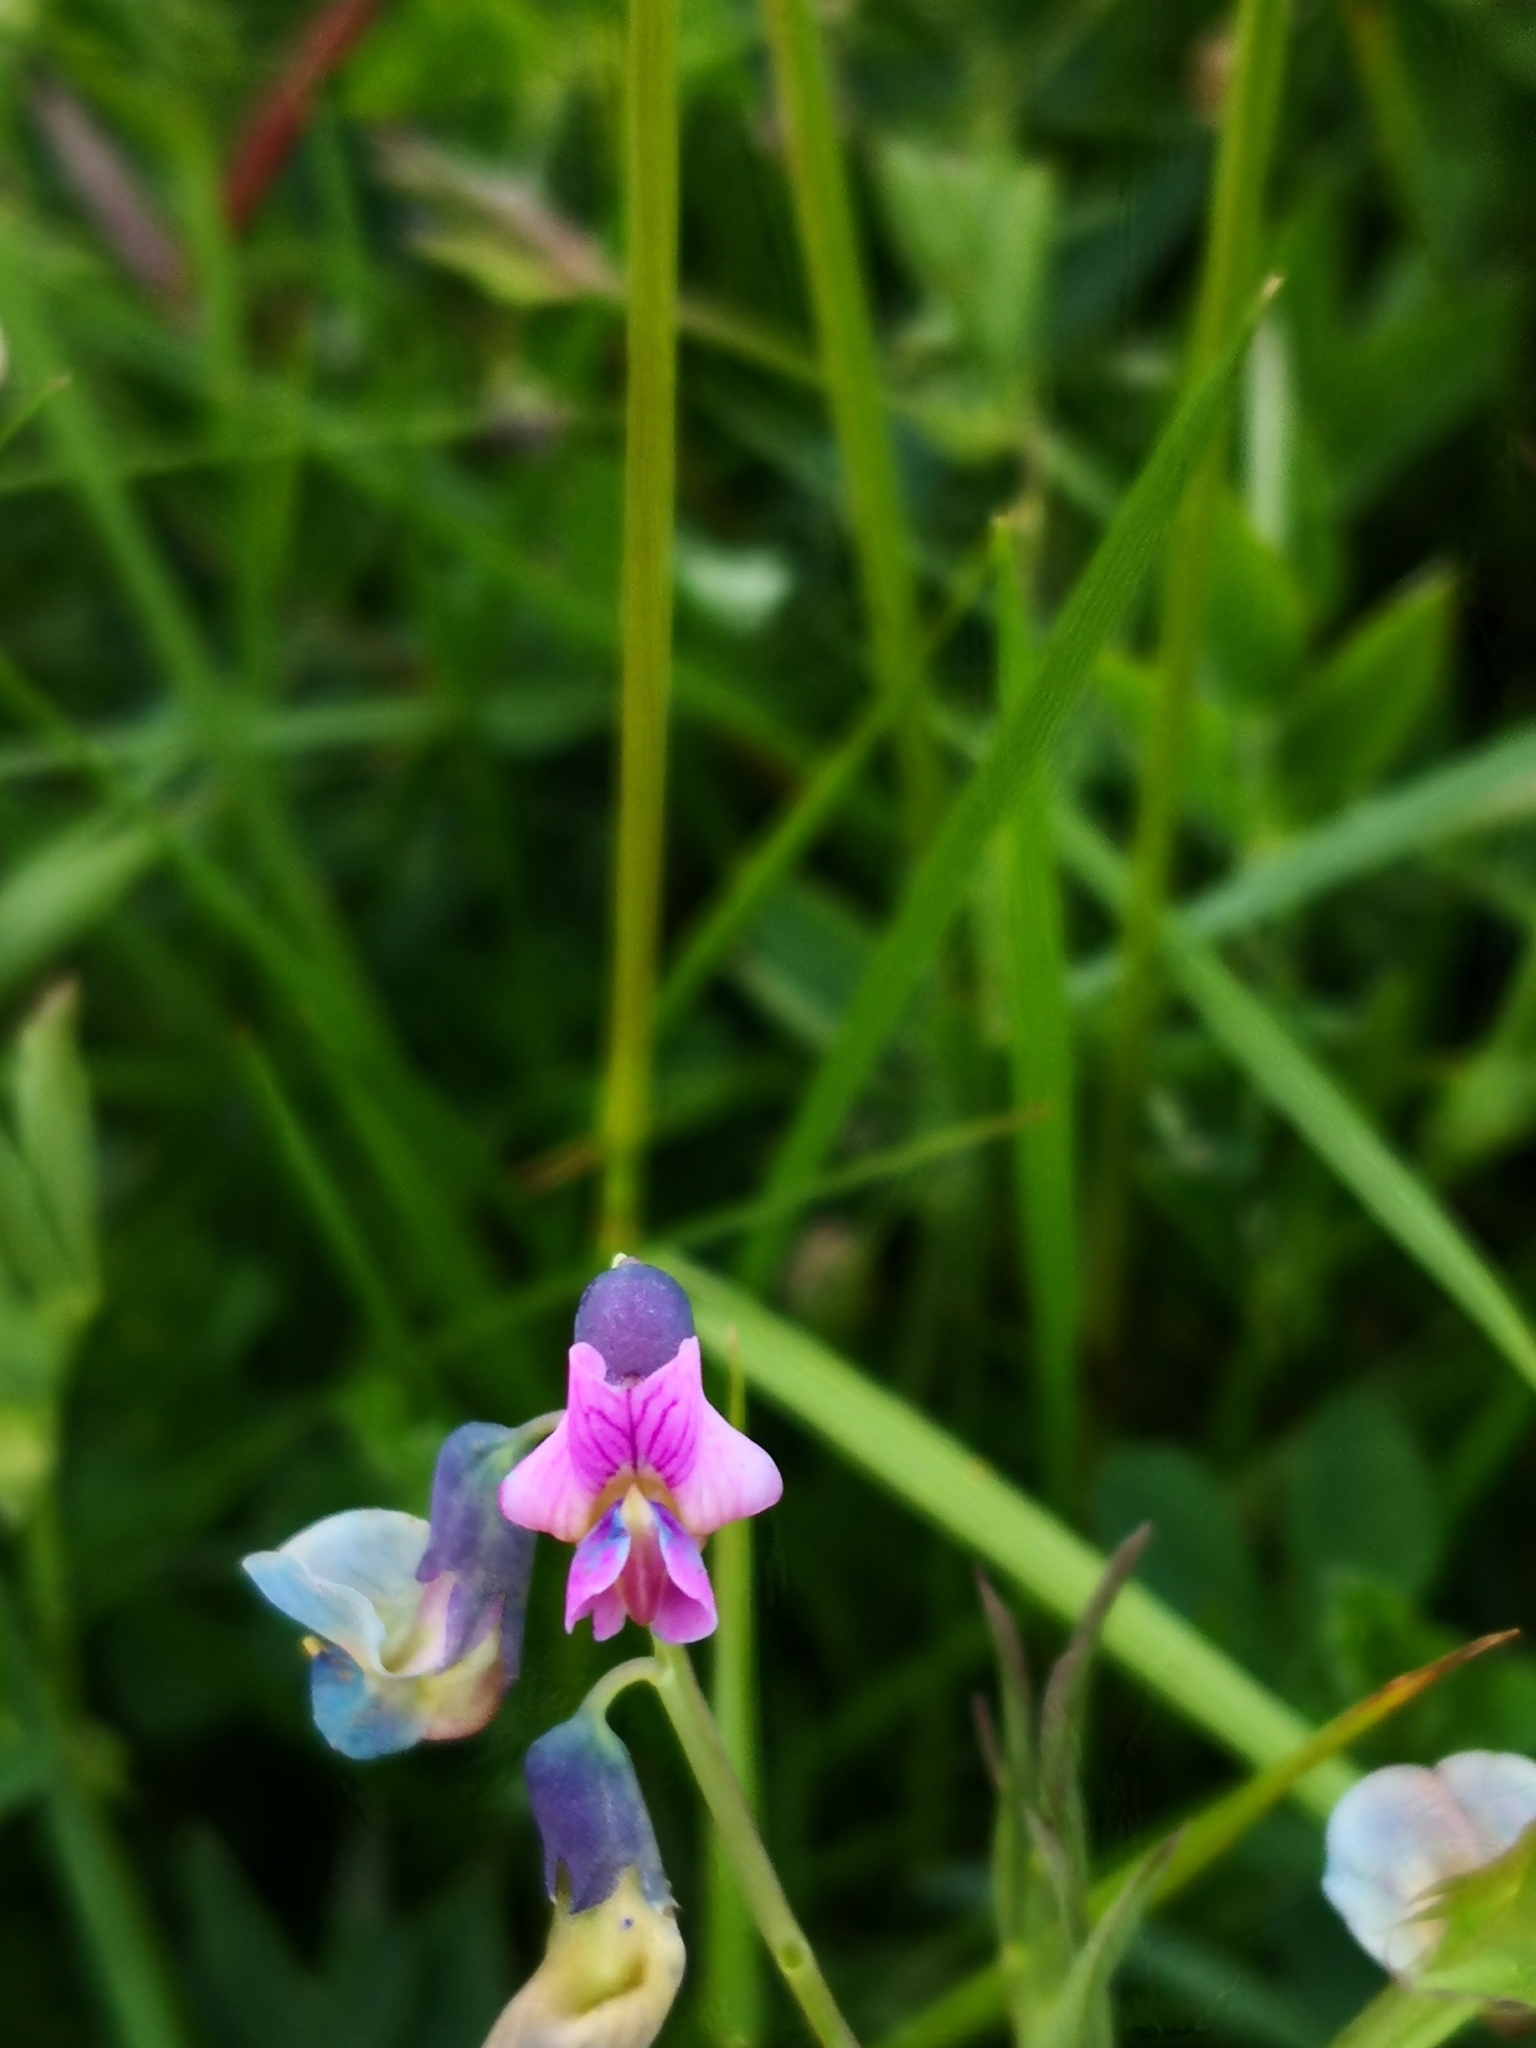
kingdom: Plantae
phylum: Tracheophyta
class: Magnoliopsida
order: Fabales
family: Fabaceae
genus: Lathyrus
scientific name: Lathyrus linifolius
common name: Bitter-vetch
